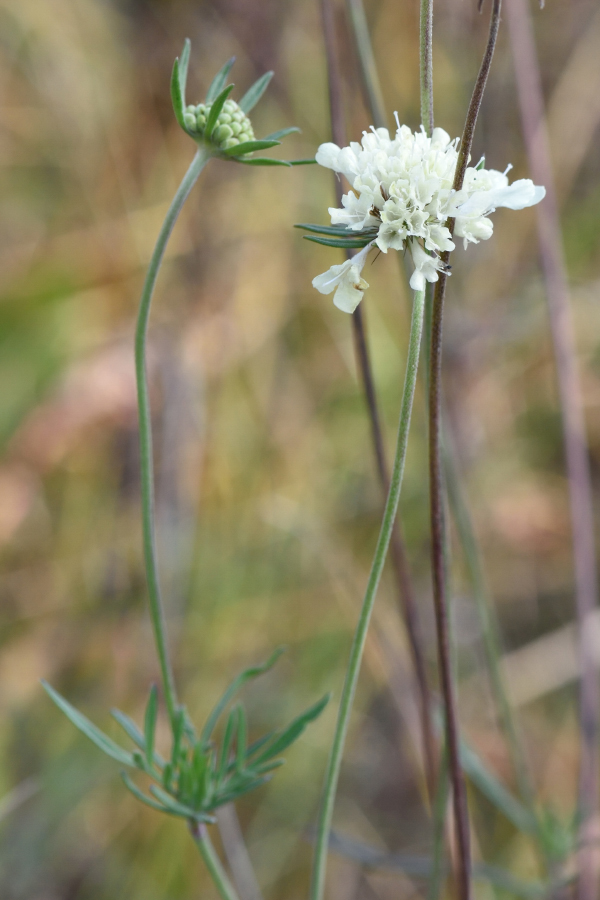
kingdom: Plantae
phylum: Tracheophyta
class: Magnoliopsida
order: Dipsacales
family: Caprifoliaceae
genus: Scabiosa
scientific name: Scabiosa ochroleuca
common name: Cream pincushions
